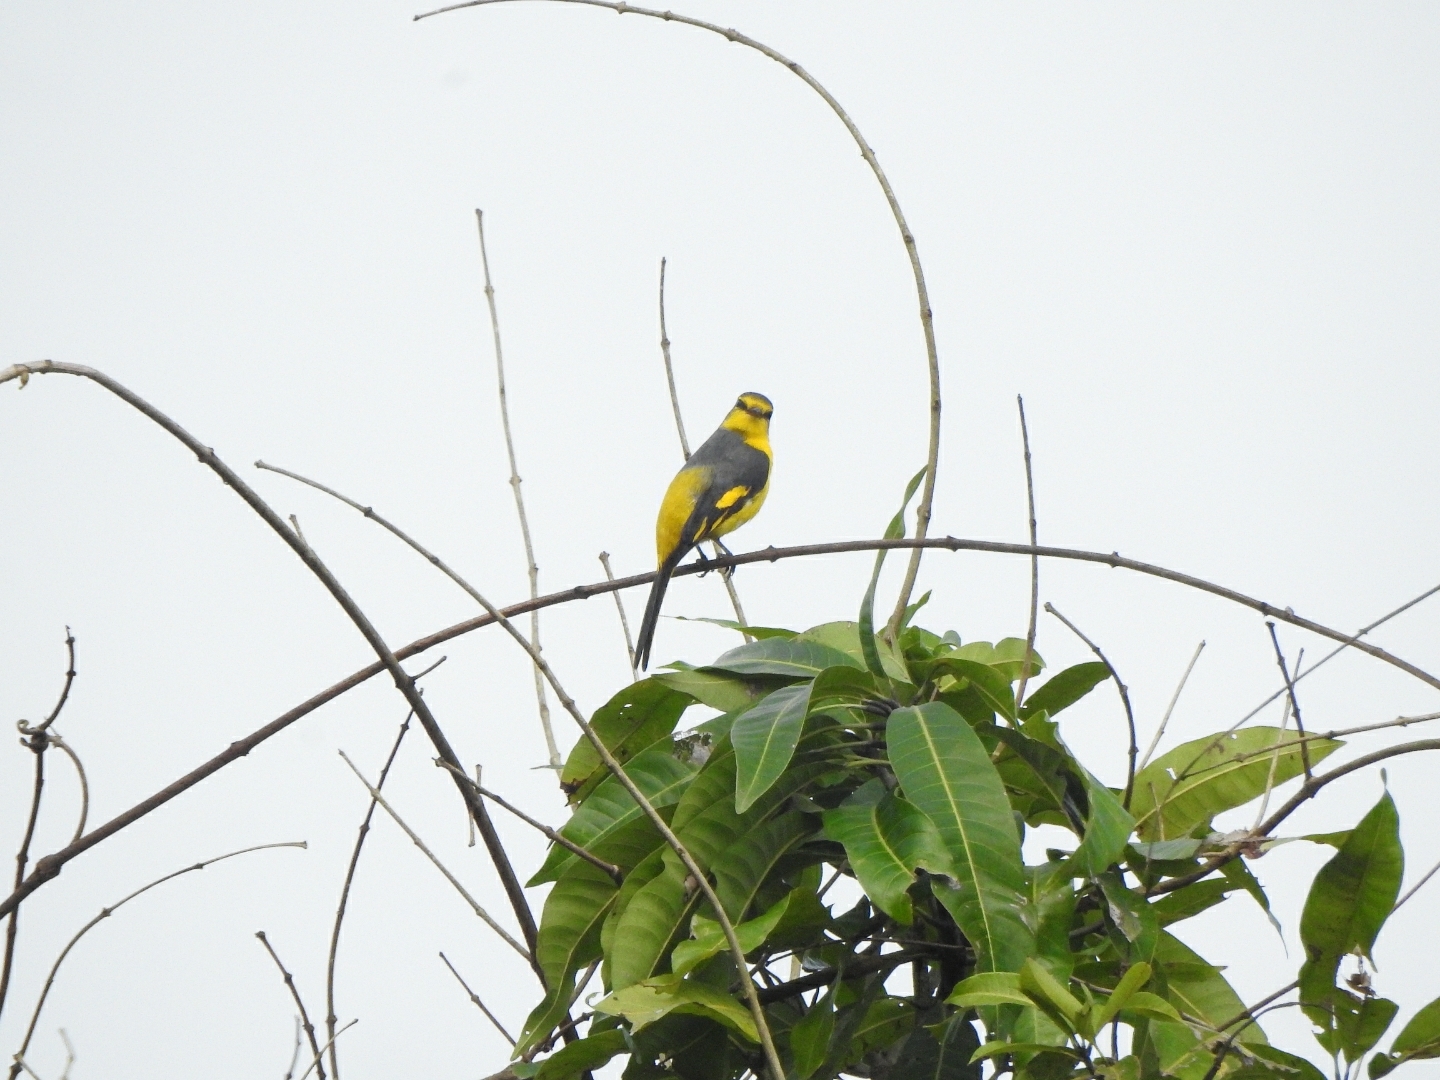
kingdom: Animalia
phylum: Chordata
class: Aves
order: Passeriformes
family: Campephagidae
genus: Pericrocotus
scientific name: Pericrocotus flammeus
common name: Orange minivet
